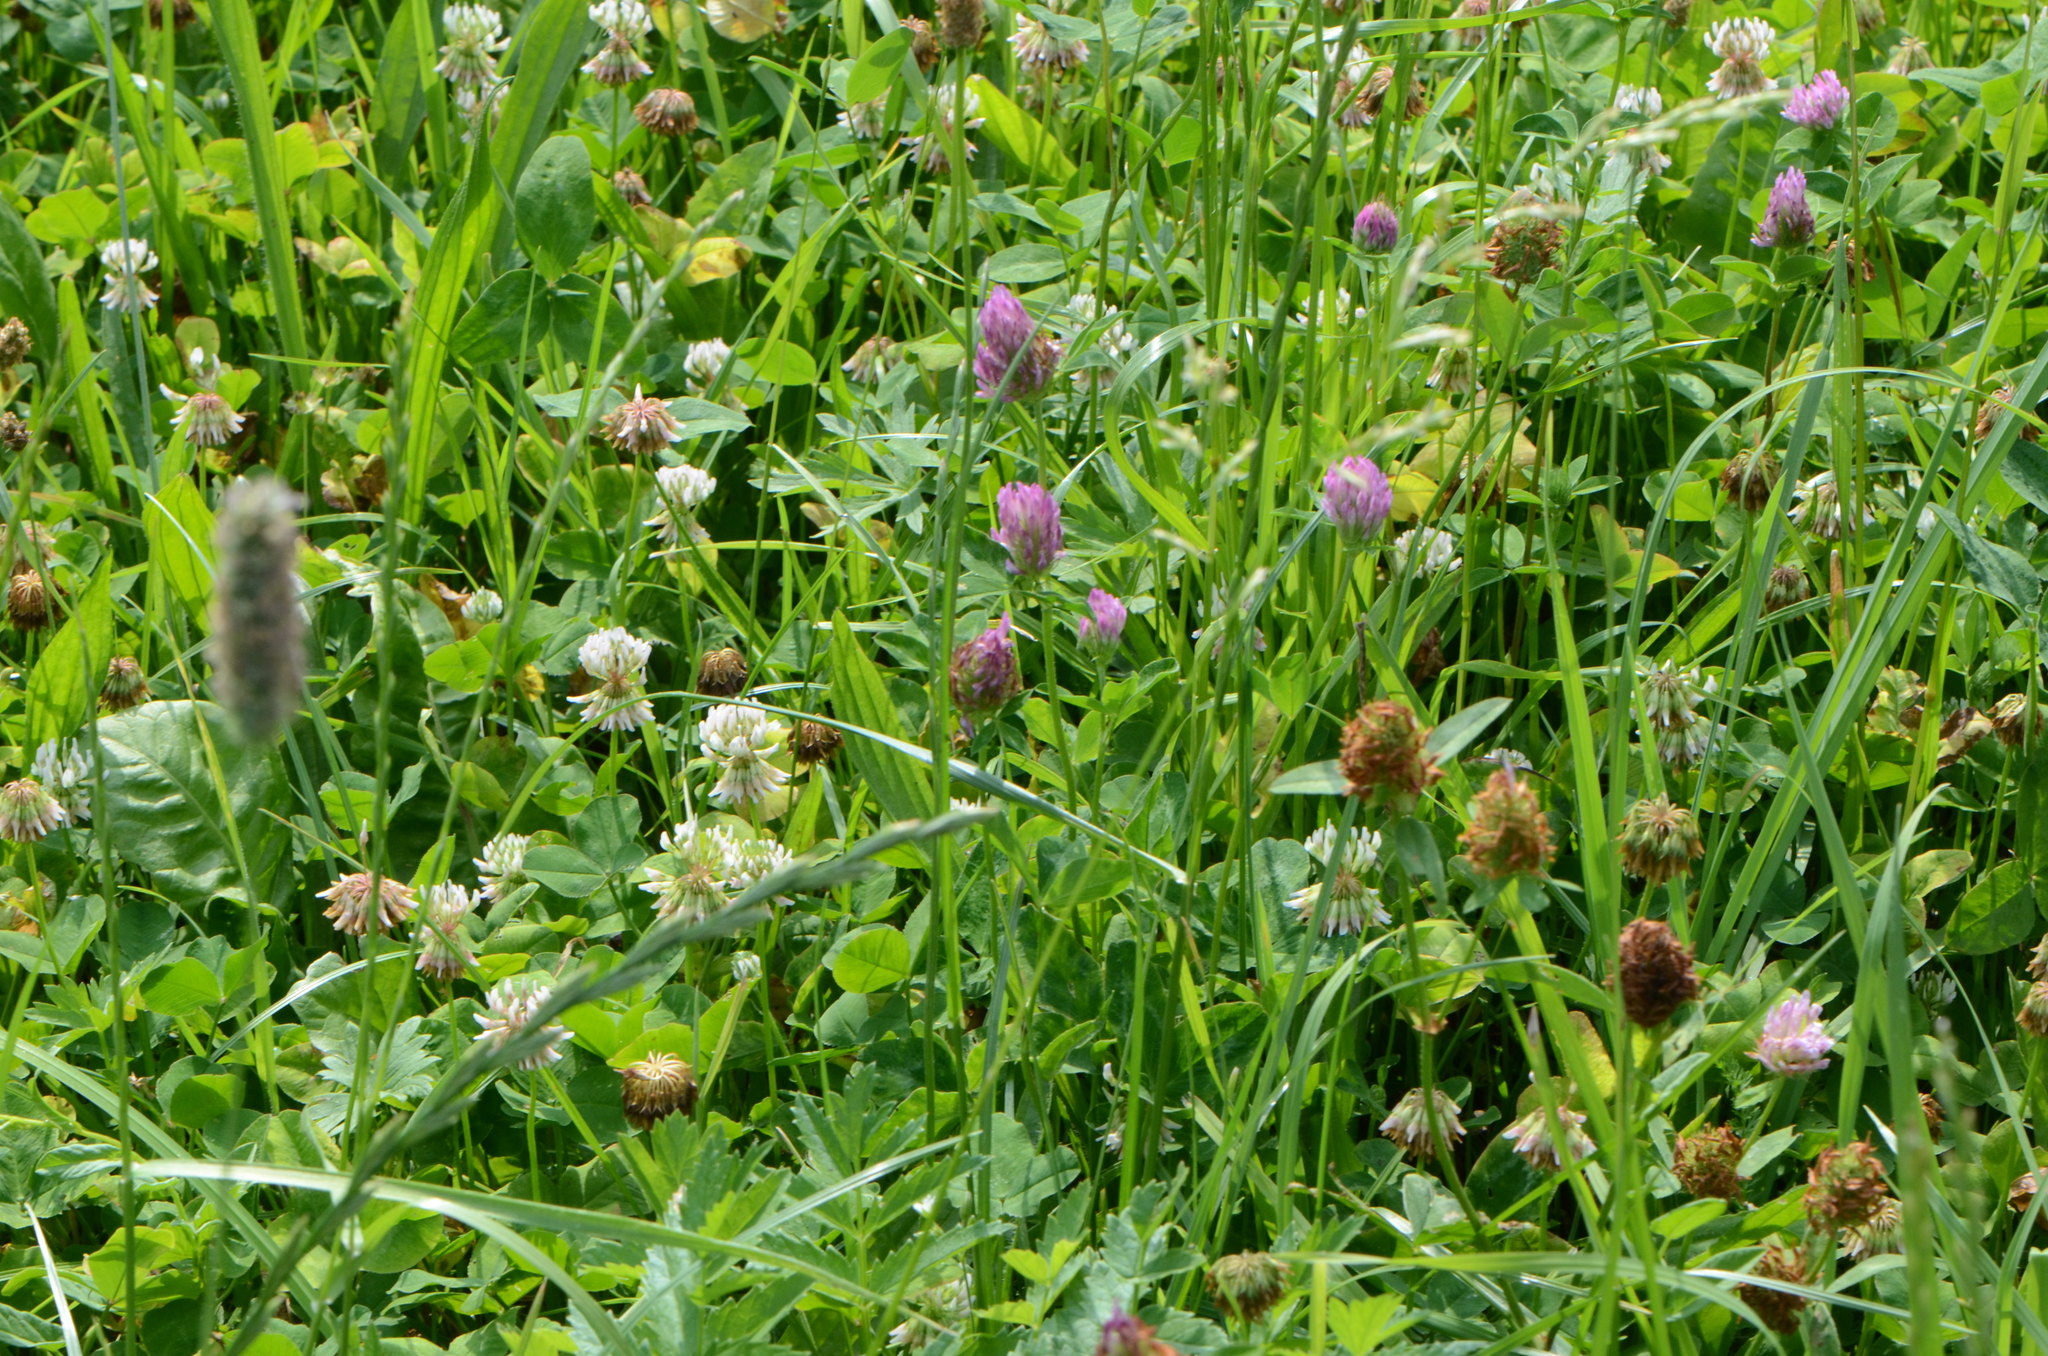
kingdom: Plantae
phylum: Tracheophyta
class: Magnoliopsida
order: Fabales
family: Fabaceae
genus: Trifolium
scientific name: Trifolium pratense
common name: Red clover
